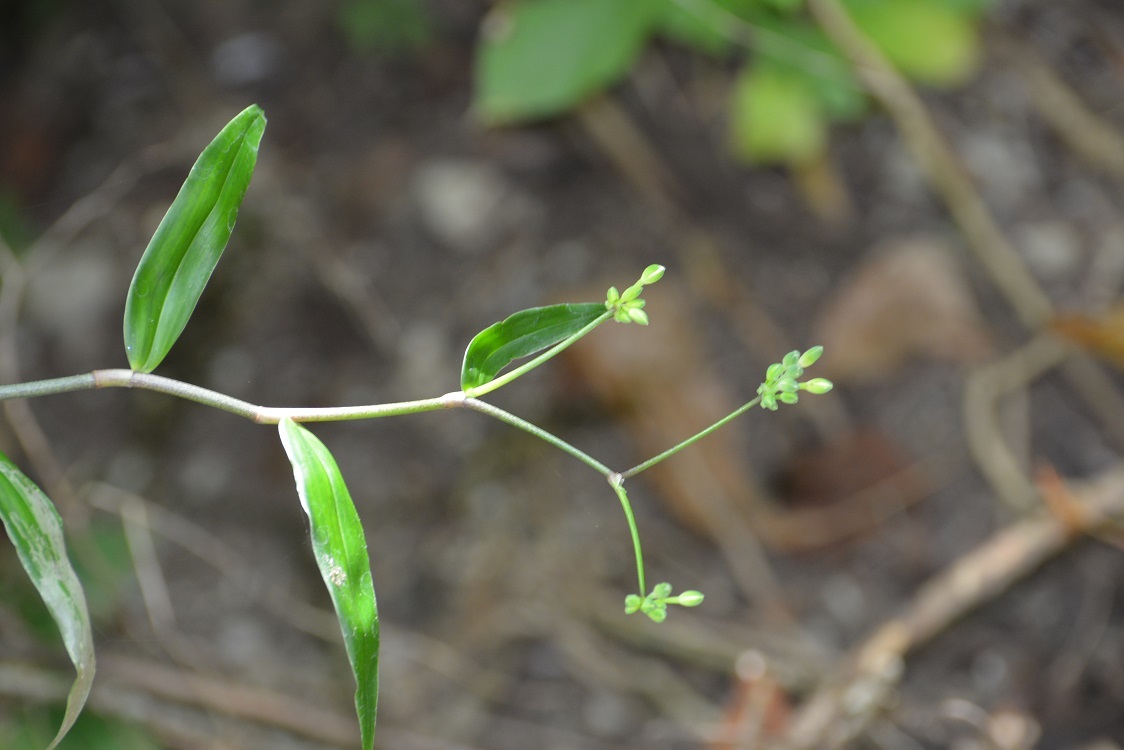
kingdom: Plantae
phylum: Tracheophyta
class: Liliopsida
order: Commelinales
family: Commelinaceae
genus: Callisia
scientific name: Callisia grandiflora
